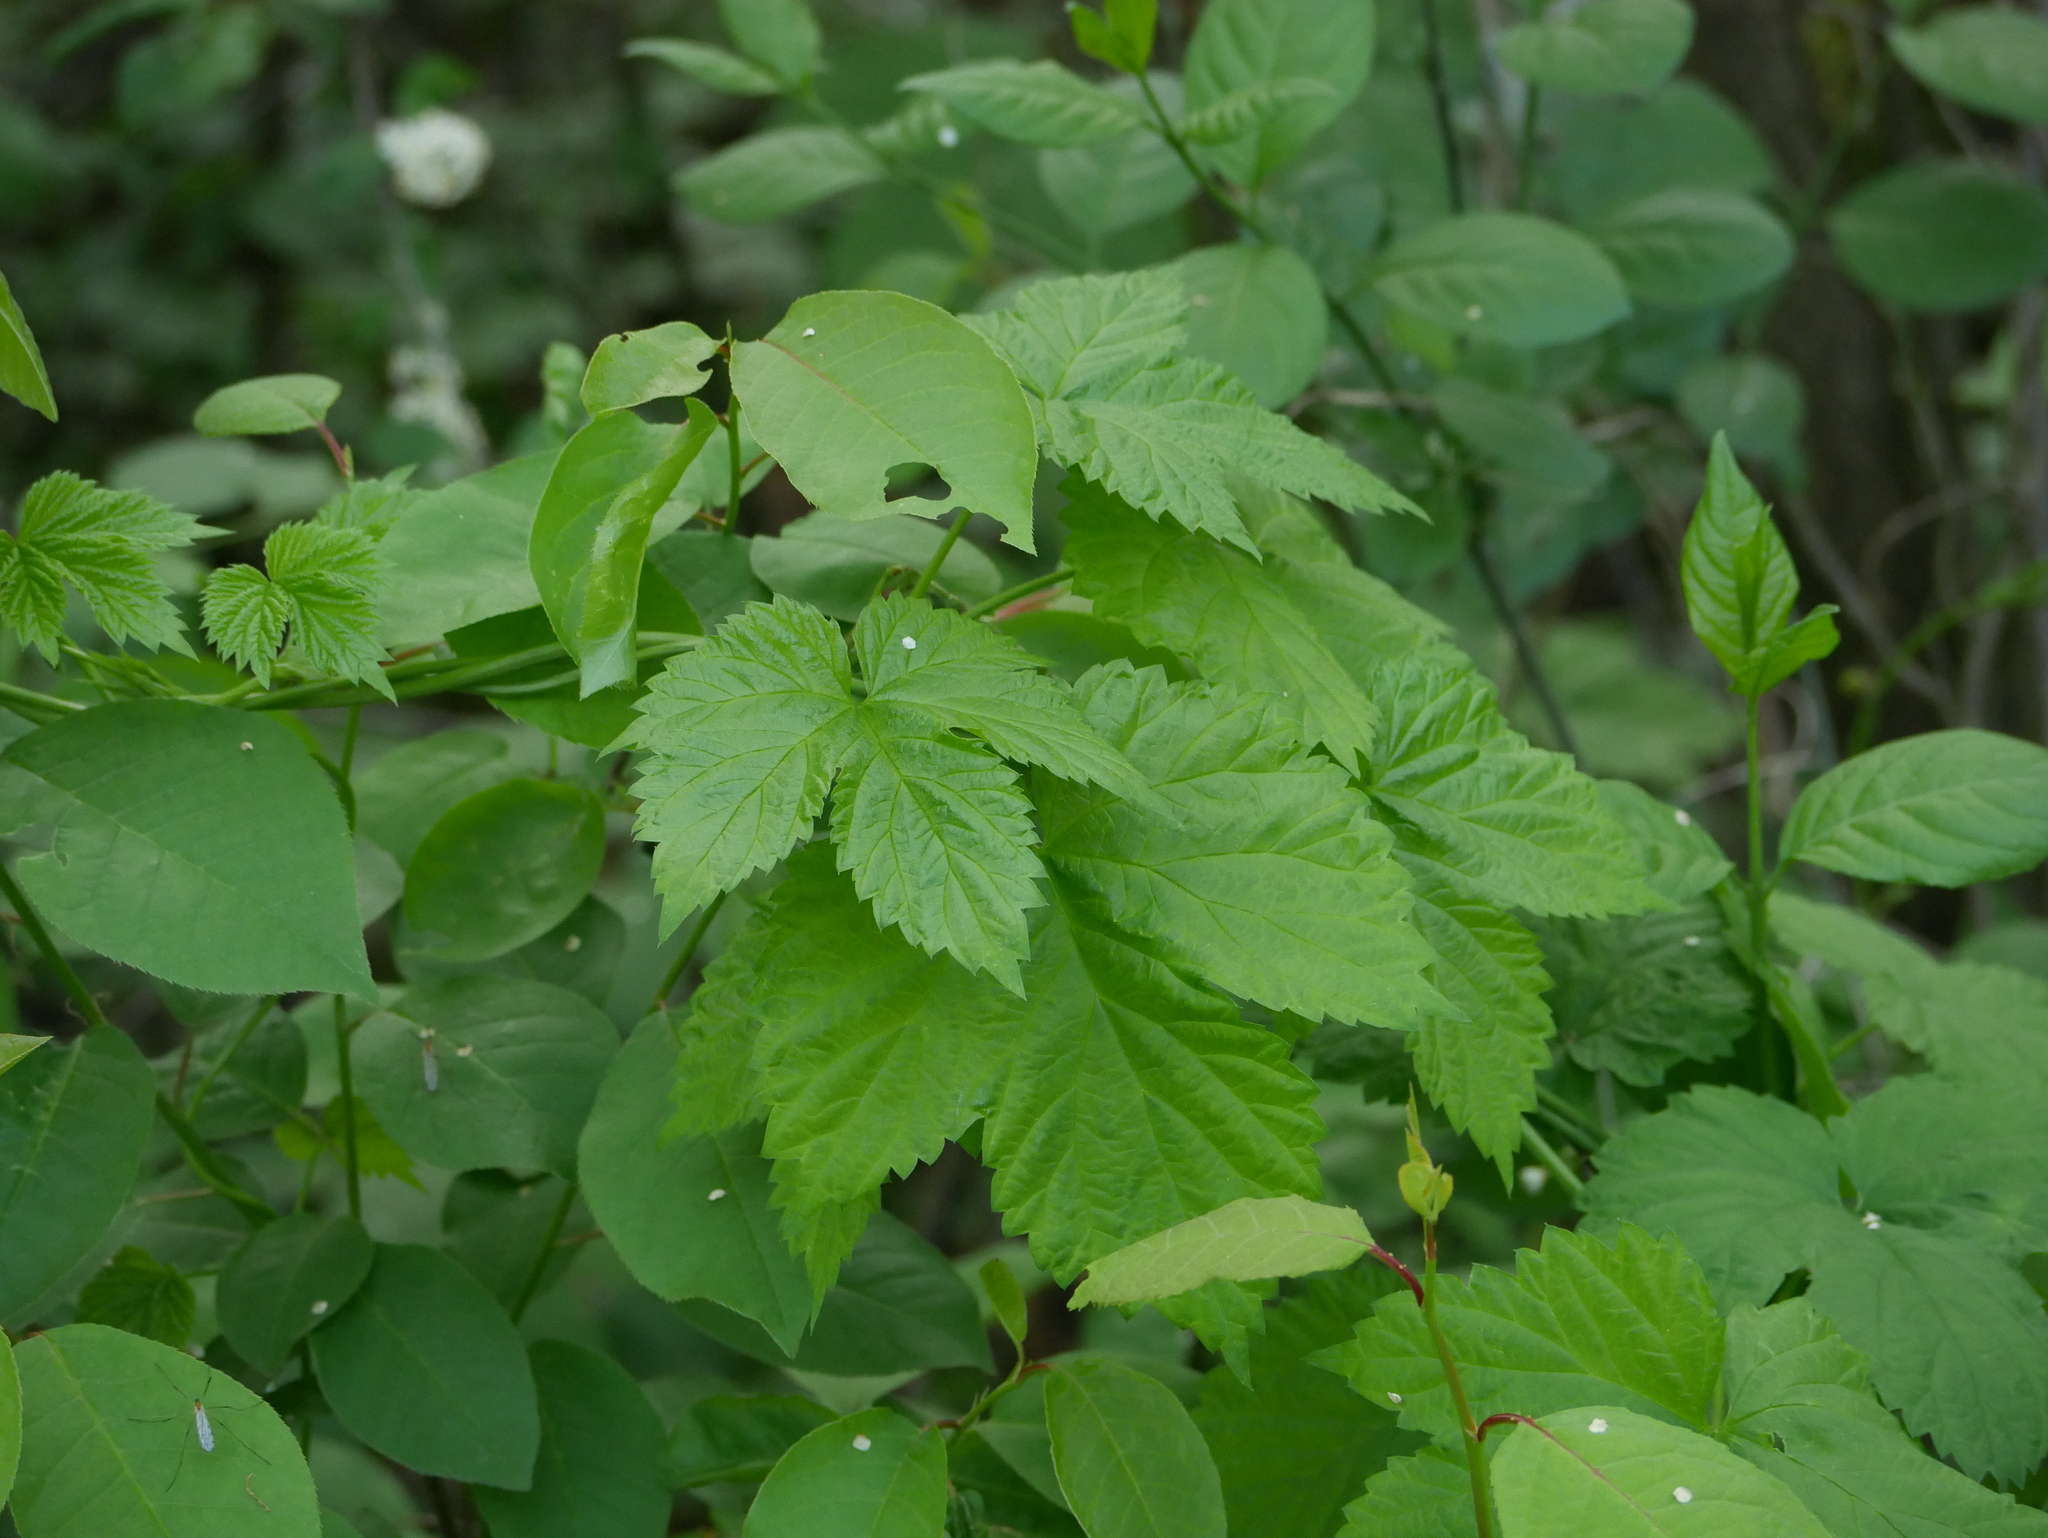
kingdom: Plantae
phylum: Tracheophyta
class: Magnoliopsida
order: Rosales
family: Cannabaceae
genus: Humulus
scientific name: Humulus lupulus
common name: Hop
